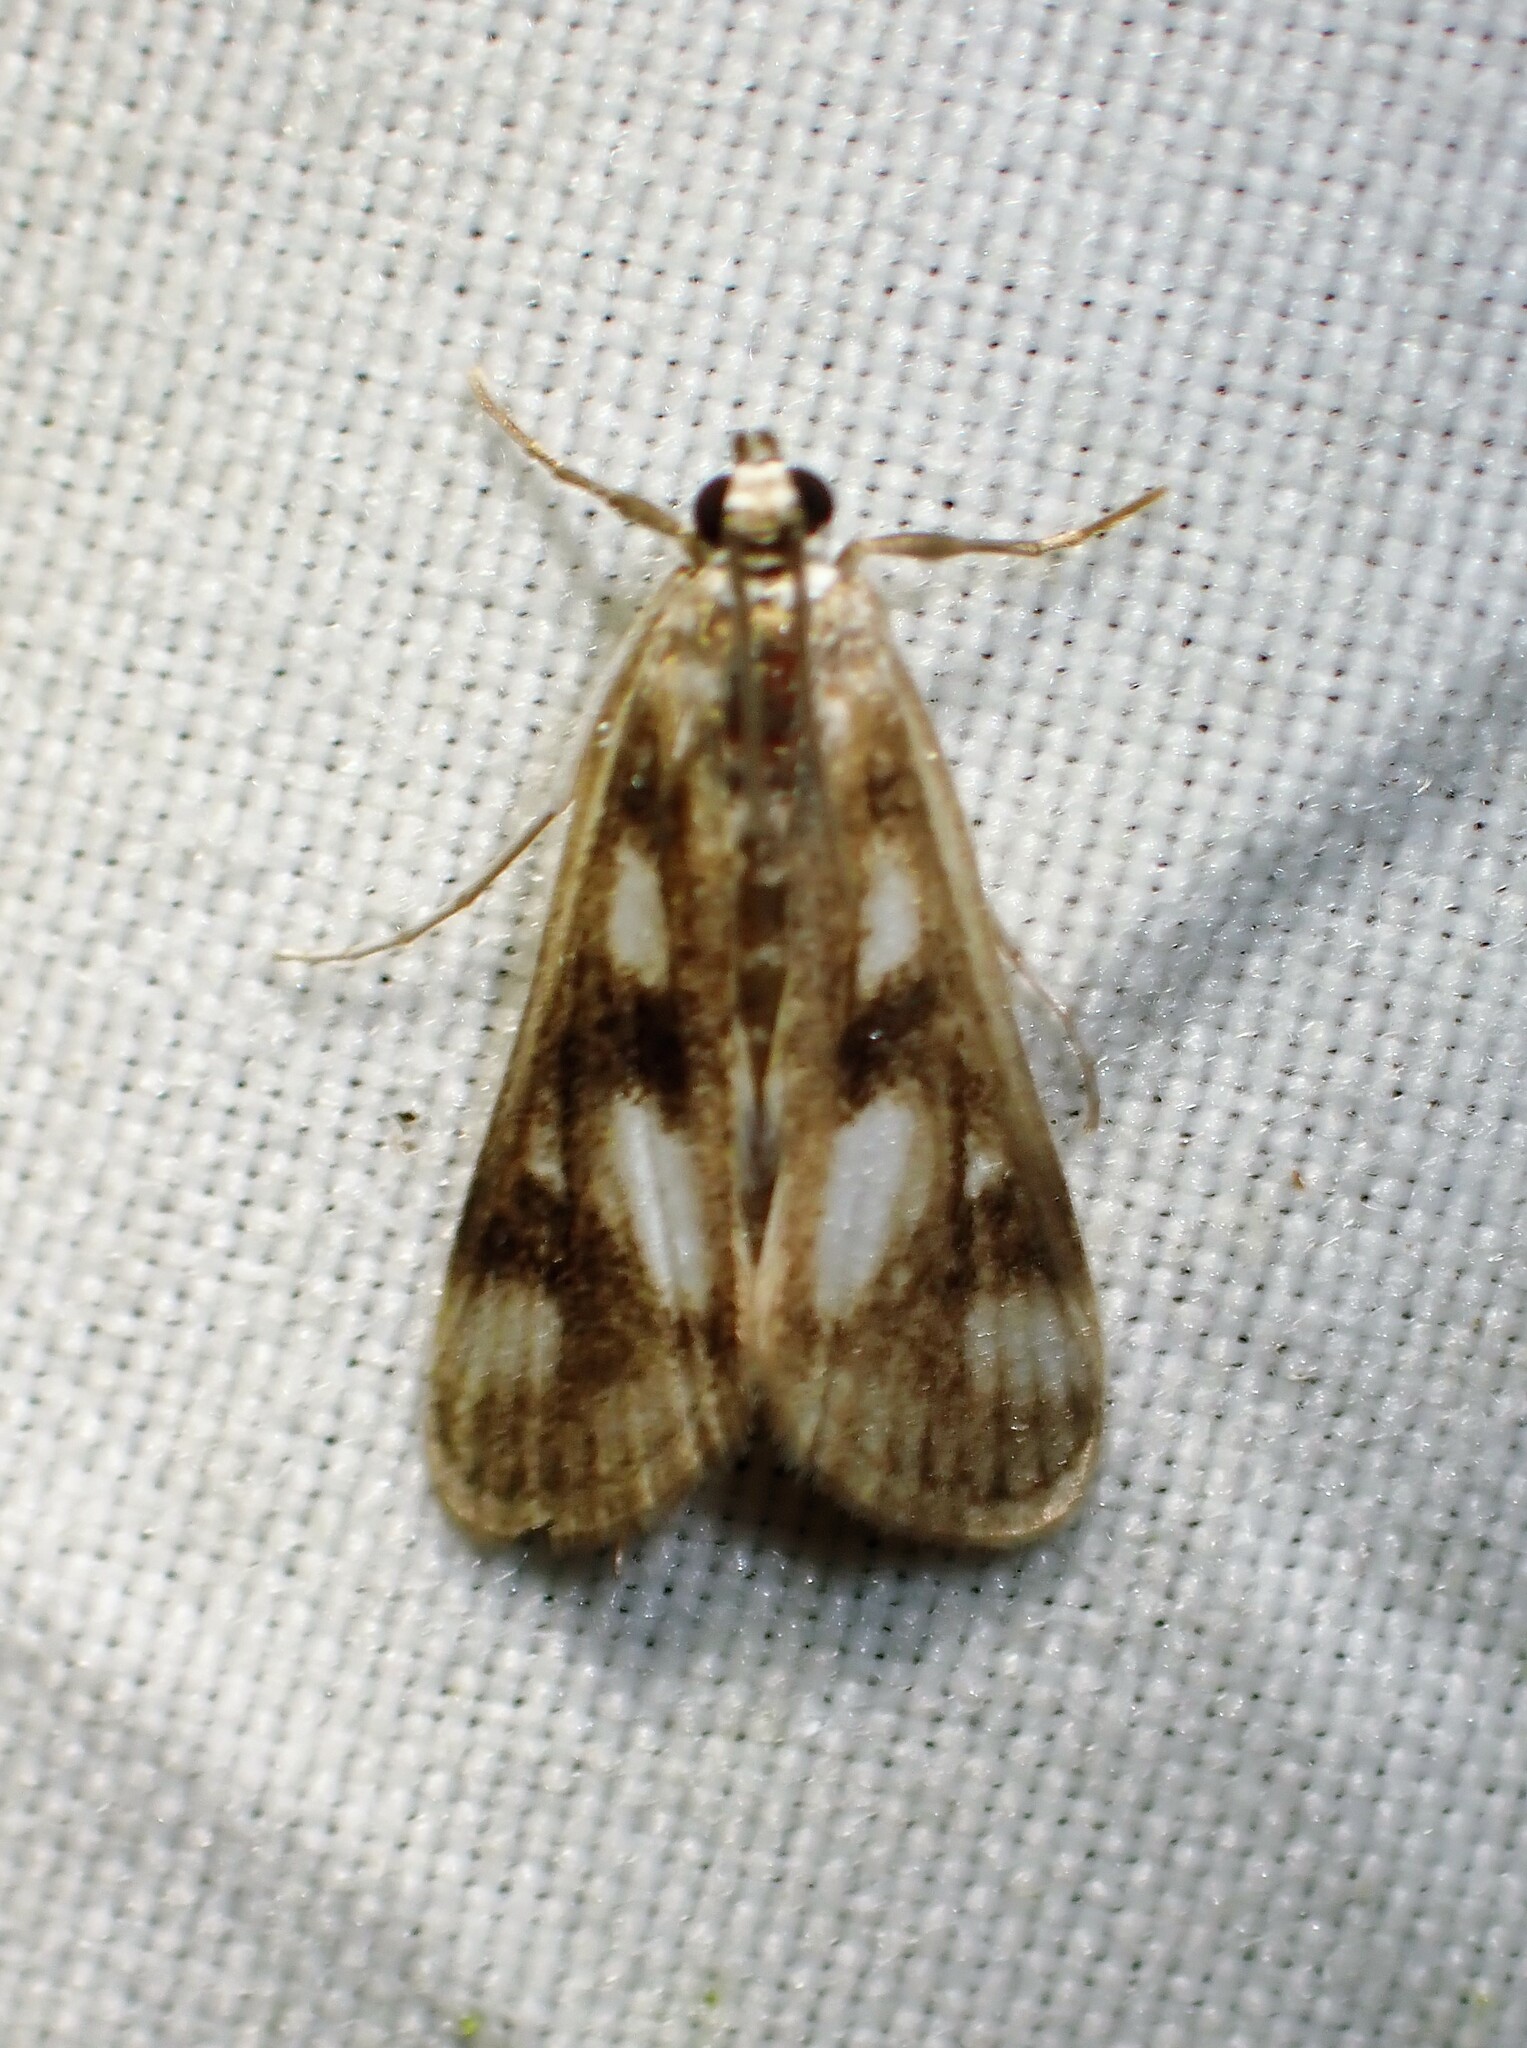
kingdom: Animalia
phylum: Arthropoda
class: Insecta
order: Lepidoptera
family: Crambidae
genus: Parapoynx
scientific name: Parapoynx maculalis
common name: Polymorphic pondweed moth
